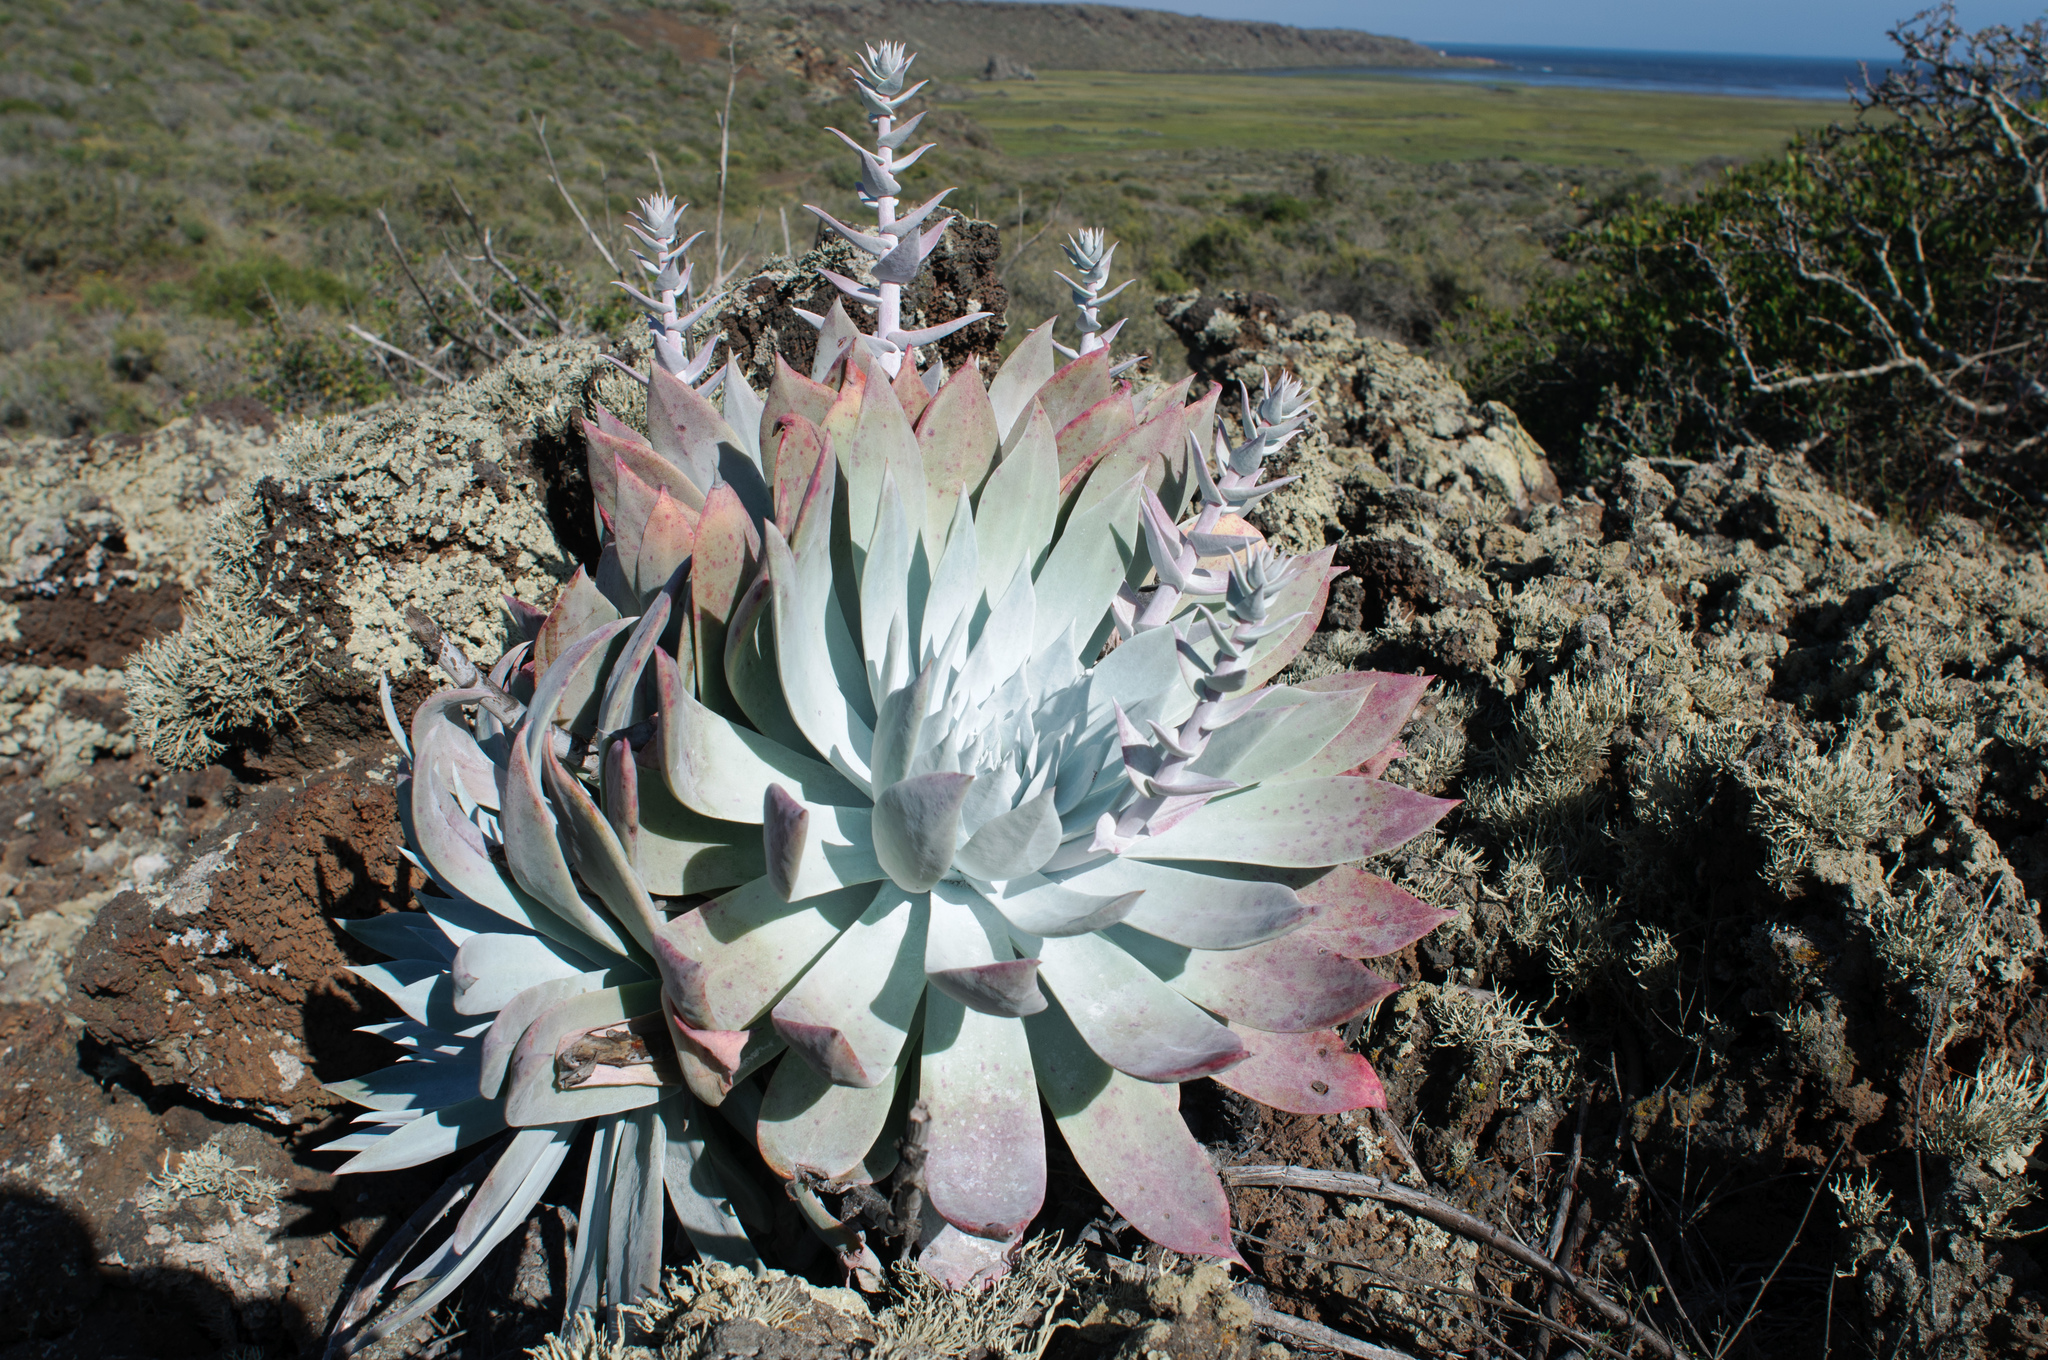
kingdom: Plantae
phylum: Tracheophyta
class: Magnoliopsida
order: Saxifragales
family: Crassulaceae
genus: Dudleya
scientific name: Dudleya anthonyi
